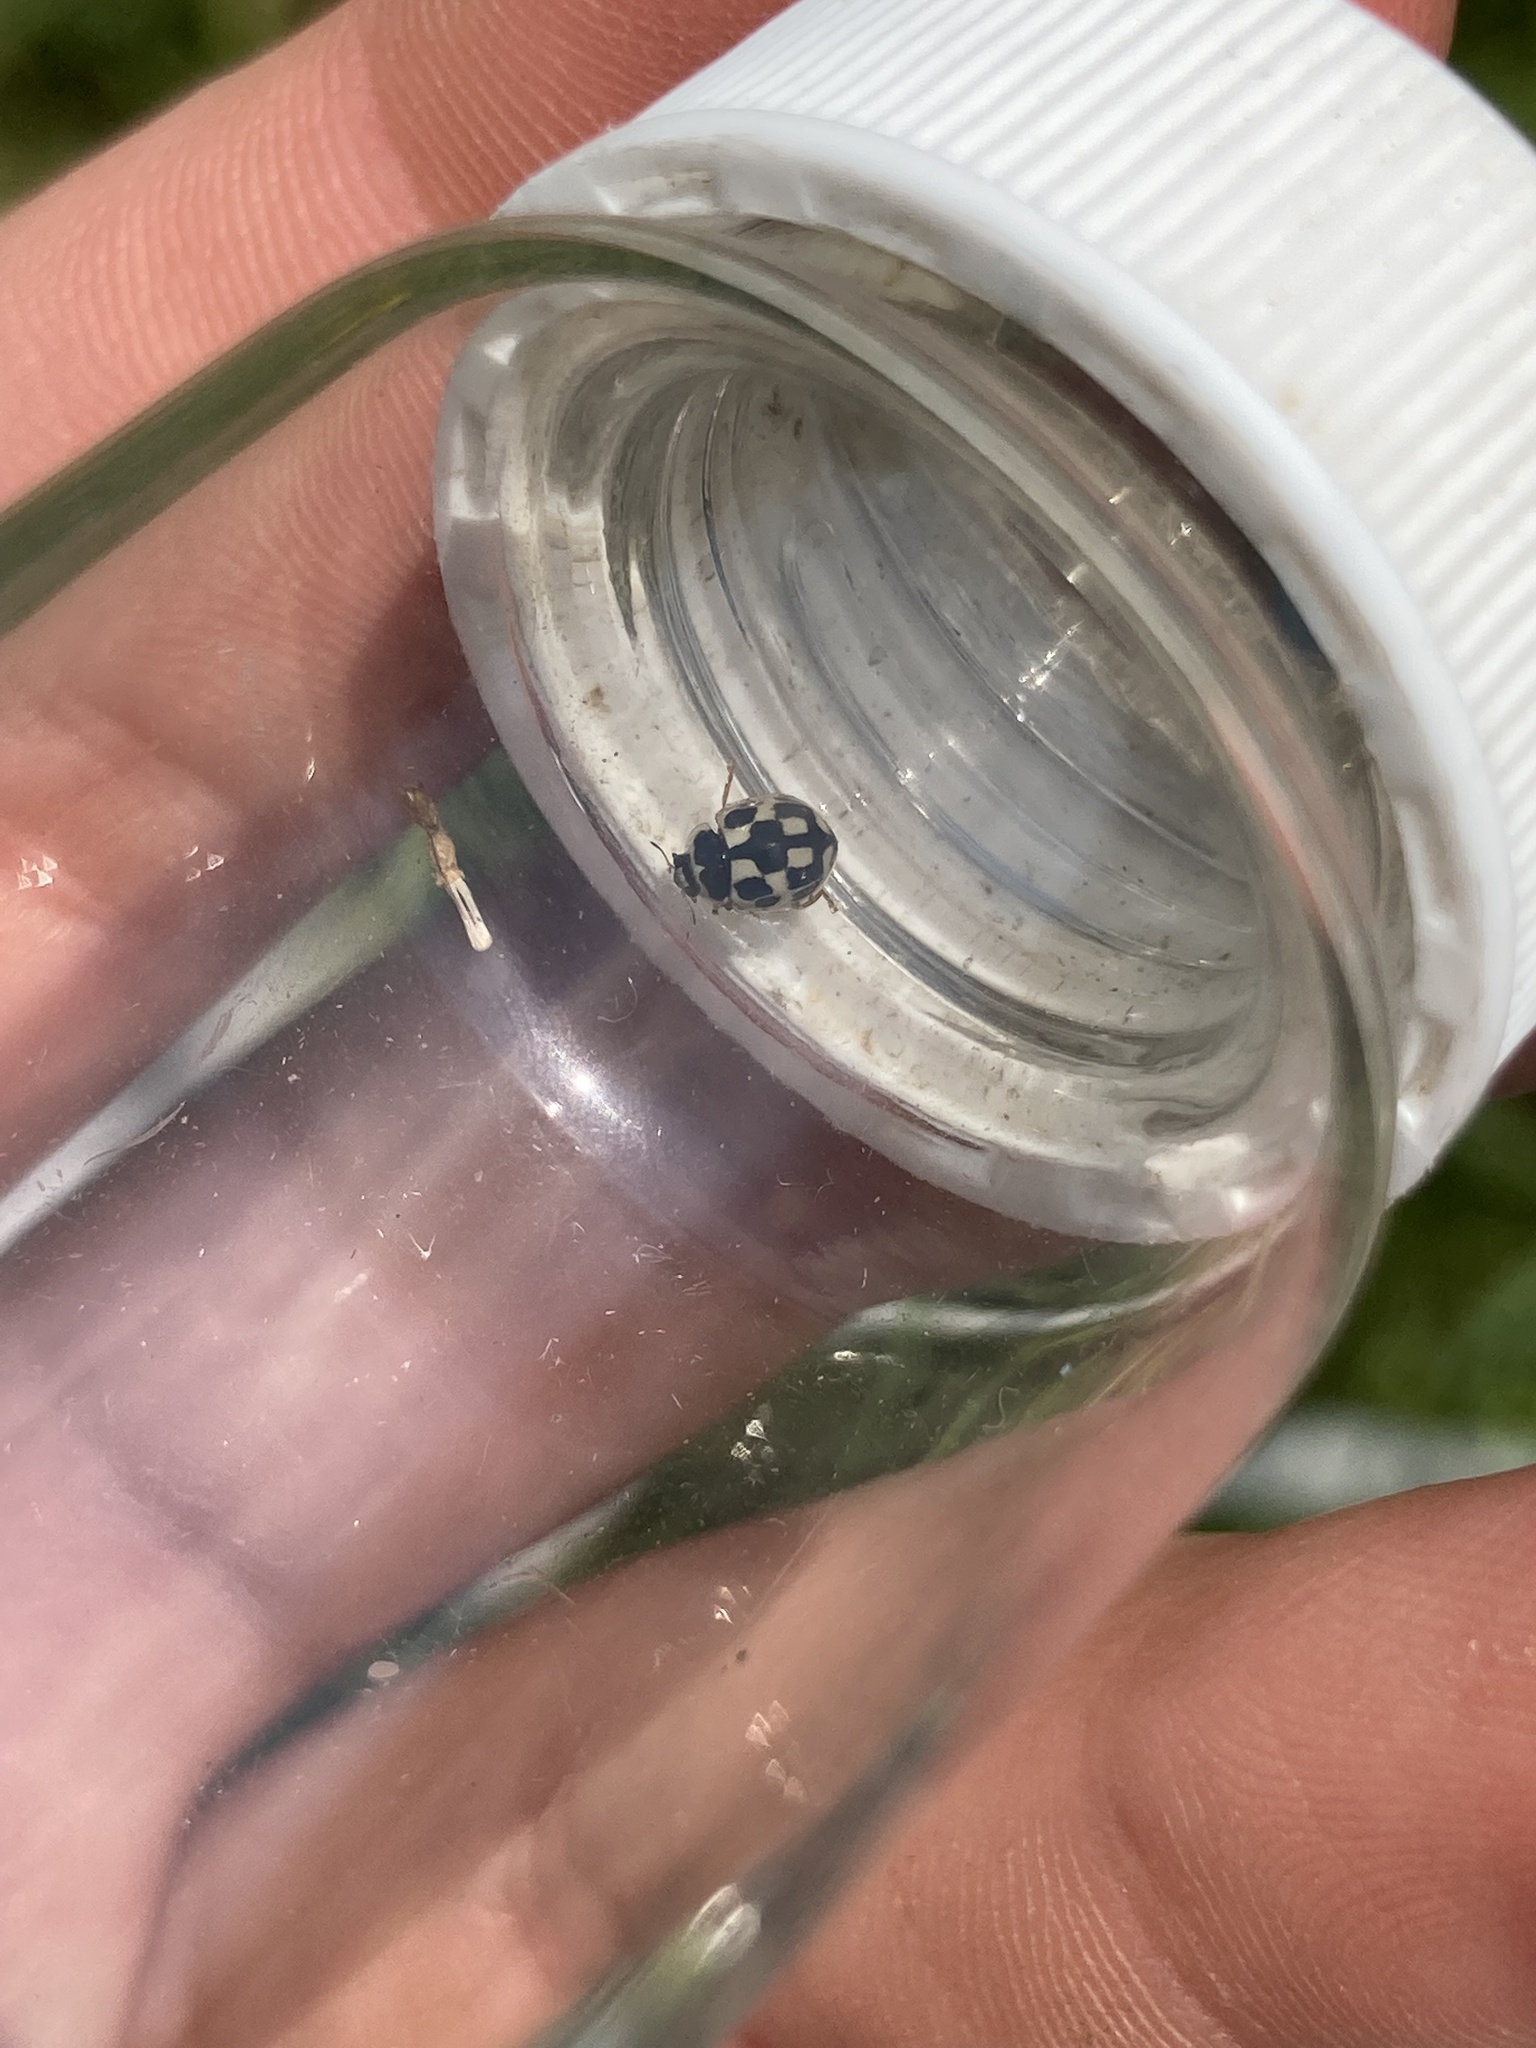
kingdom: Animalia
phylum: Arthropoda
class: Insecta
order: Coleoptera
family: Coccinellidae
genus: Propylaea
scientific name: Propylaea quatuordecimpunctata
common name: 14-spotted ladybird beetle
